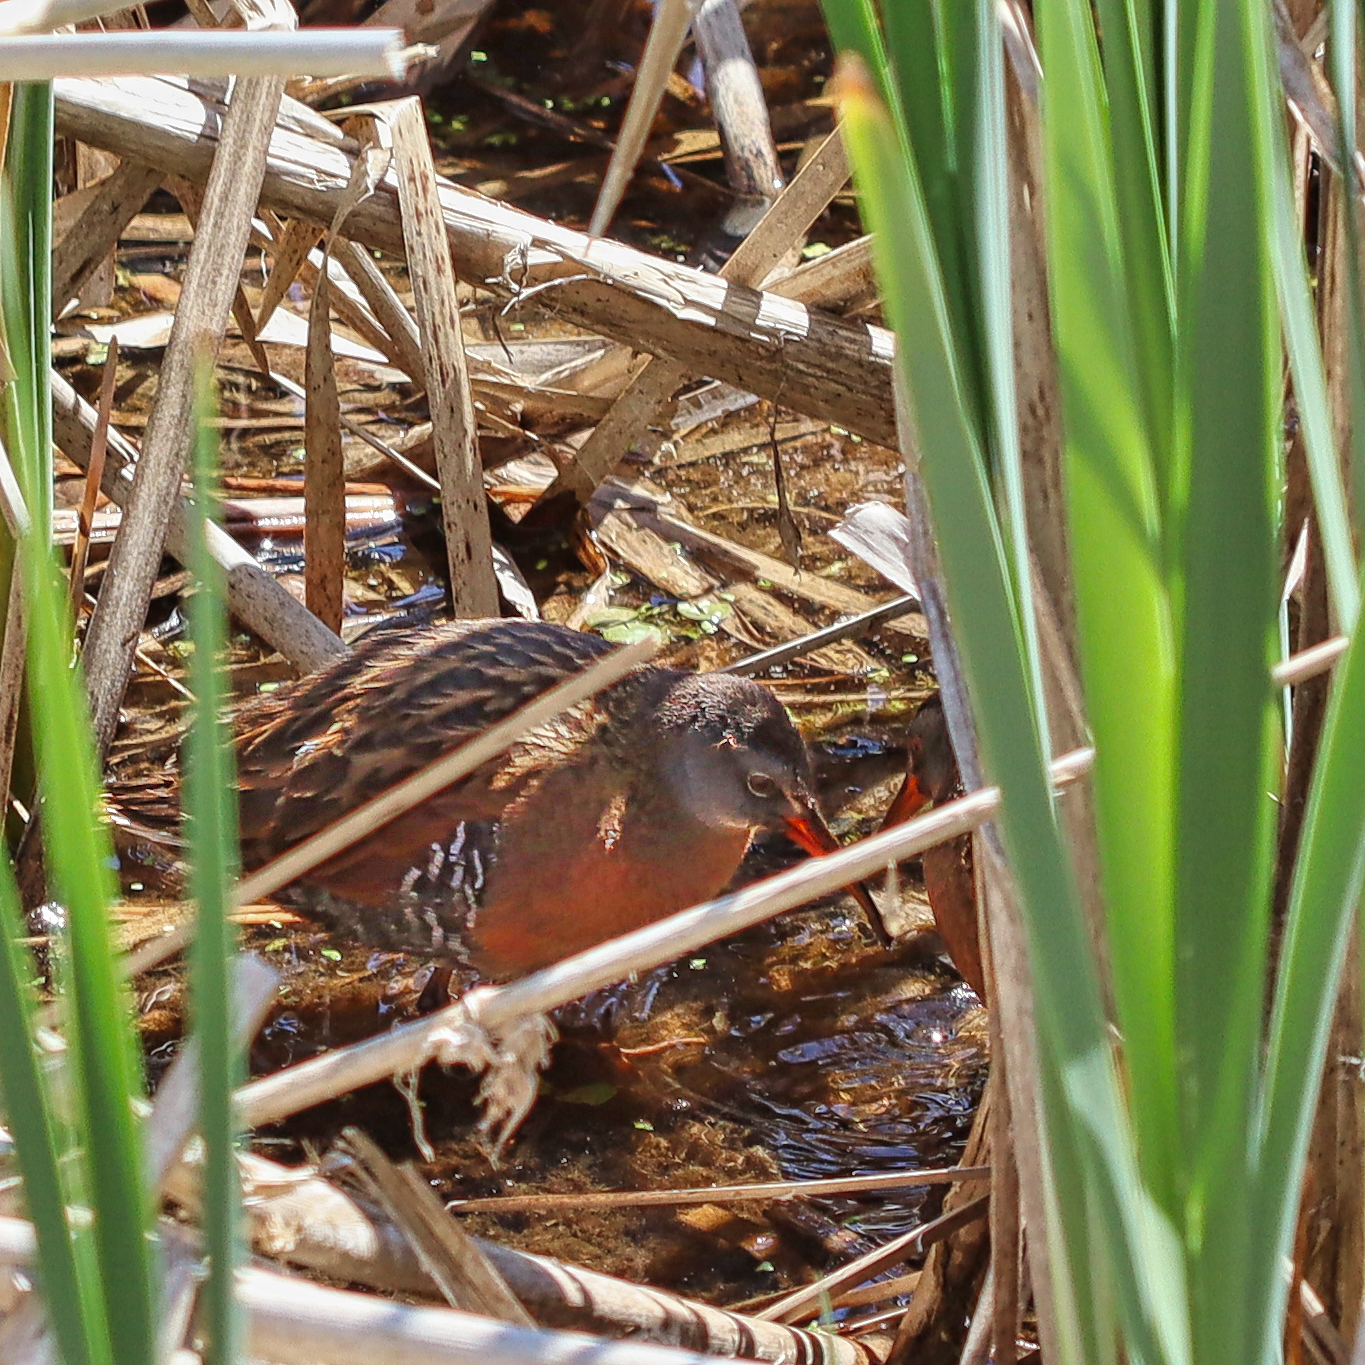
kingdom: Animalia
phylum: Chordata
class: Aves
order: Gruiformes
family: Rallidae
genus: Rallus
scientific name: Rallus limicola
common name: Virginia rail
